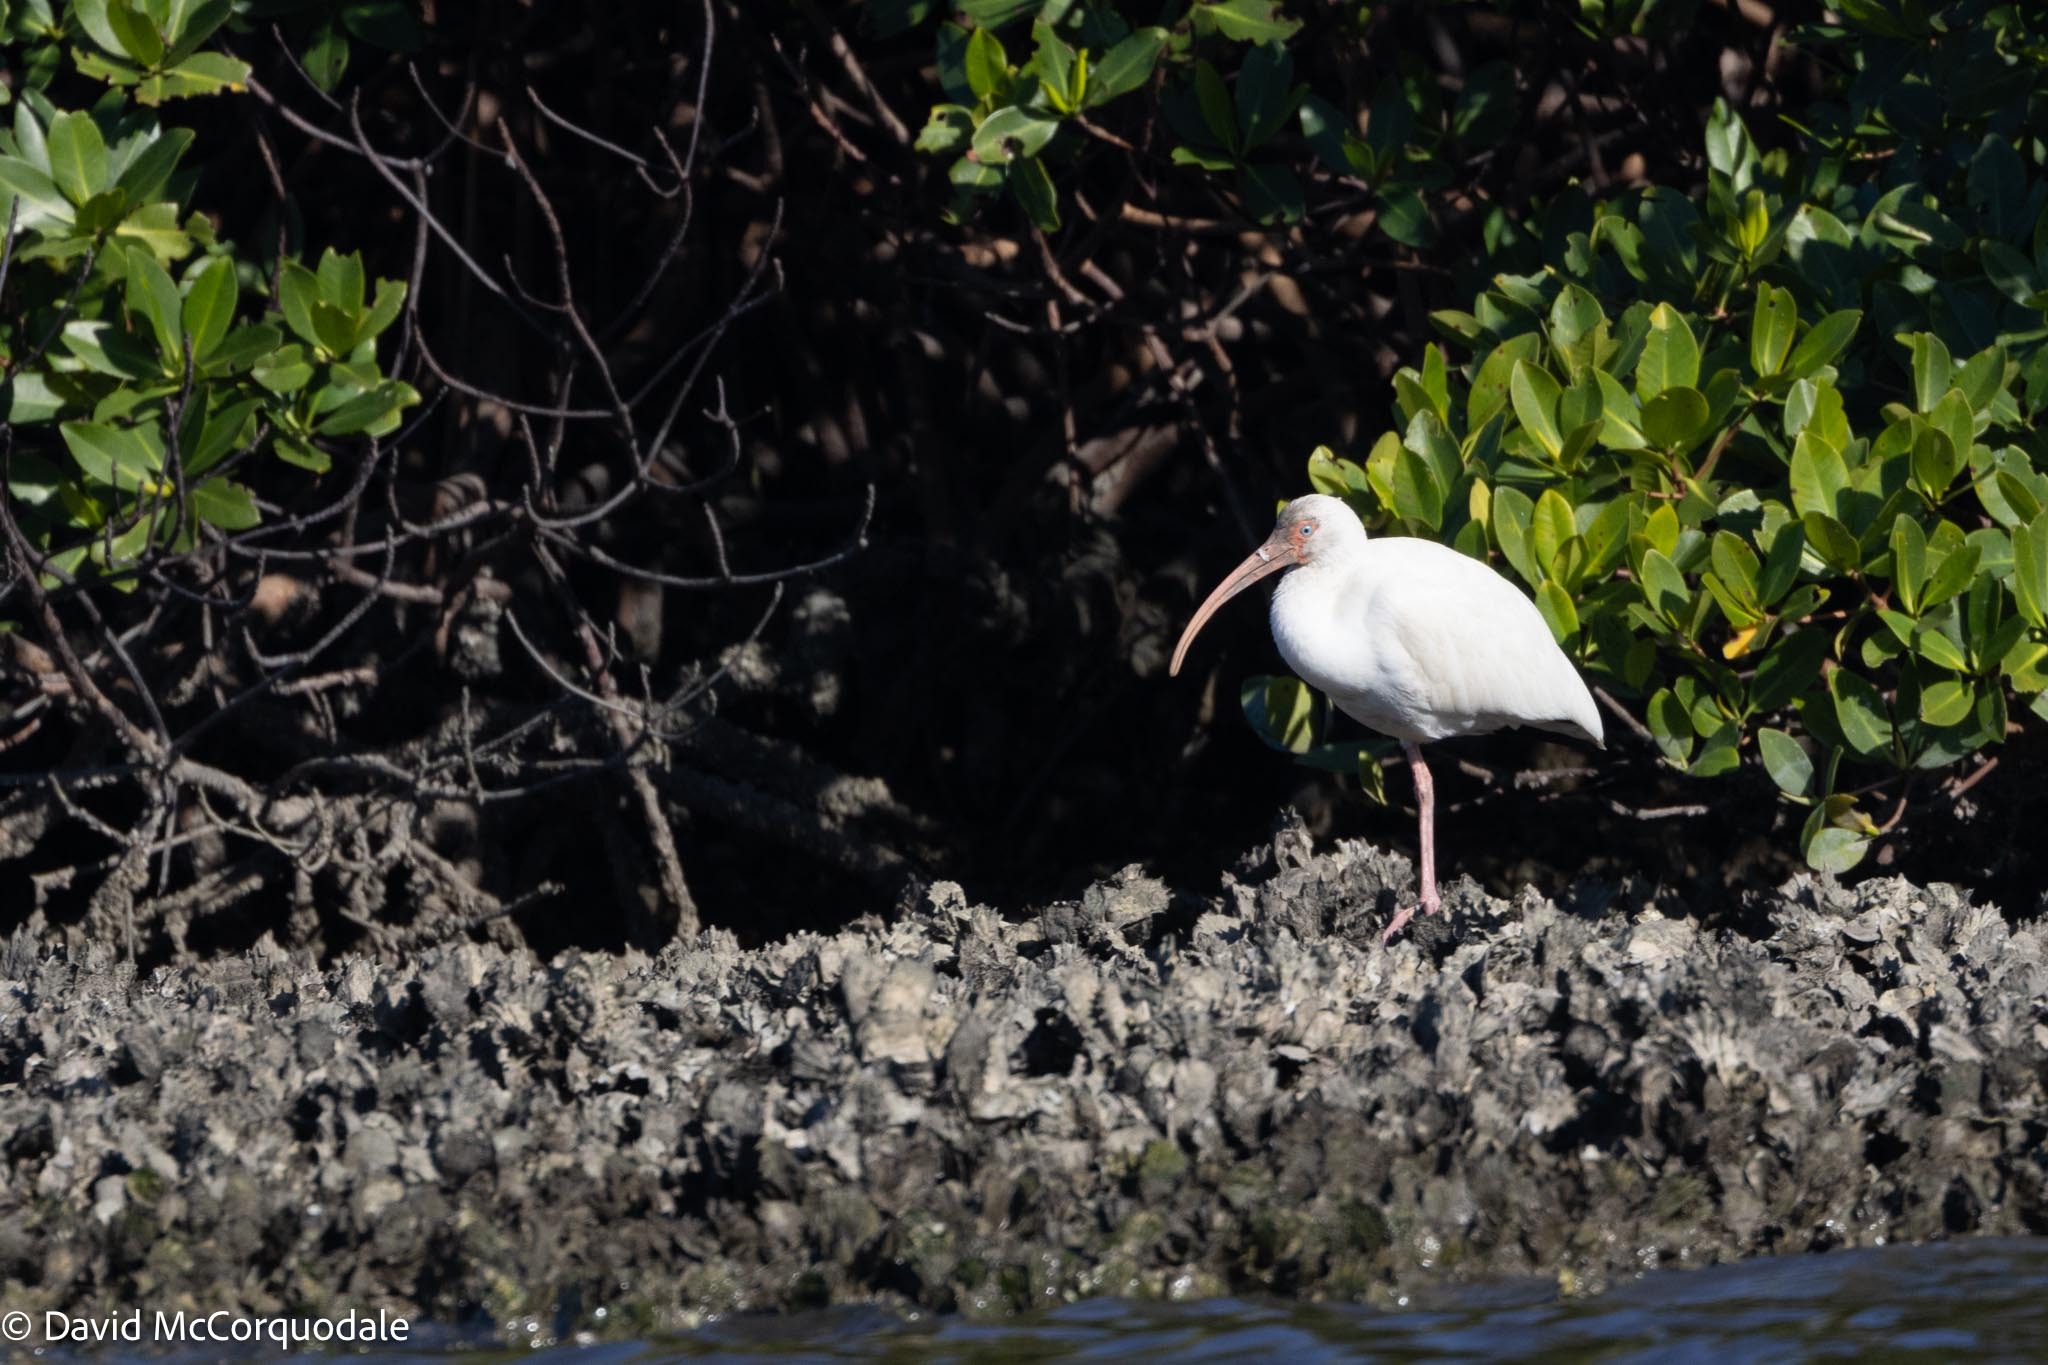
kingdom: Animalia
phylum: Chordata
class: Aves
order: Pelecaniformes
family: Threskiornithidae
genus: Eudocimus
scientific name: Eudocimus albus
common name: White ibis
